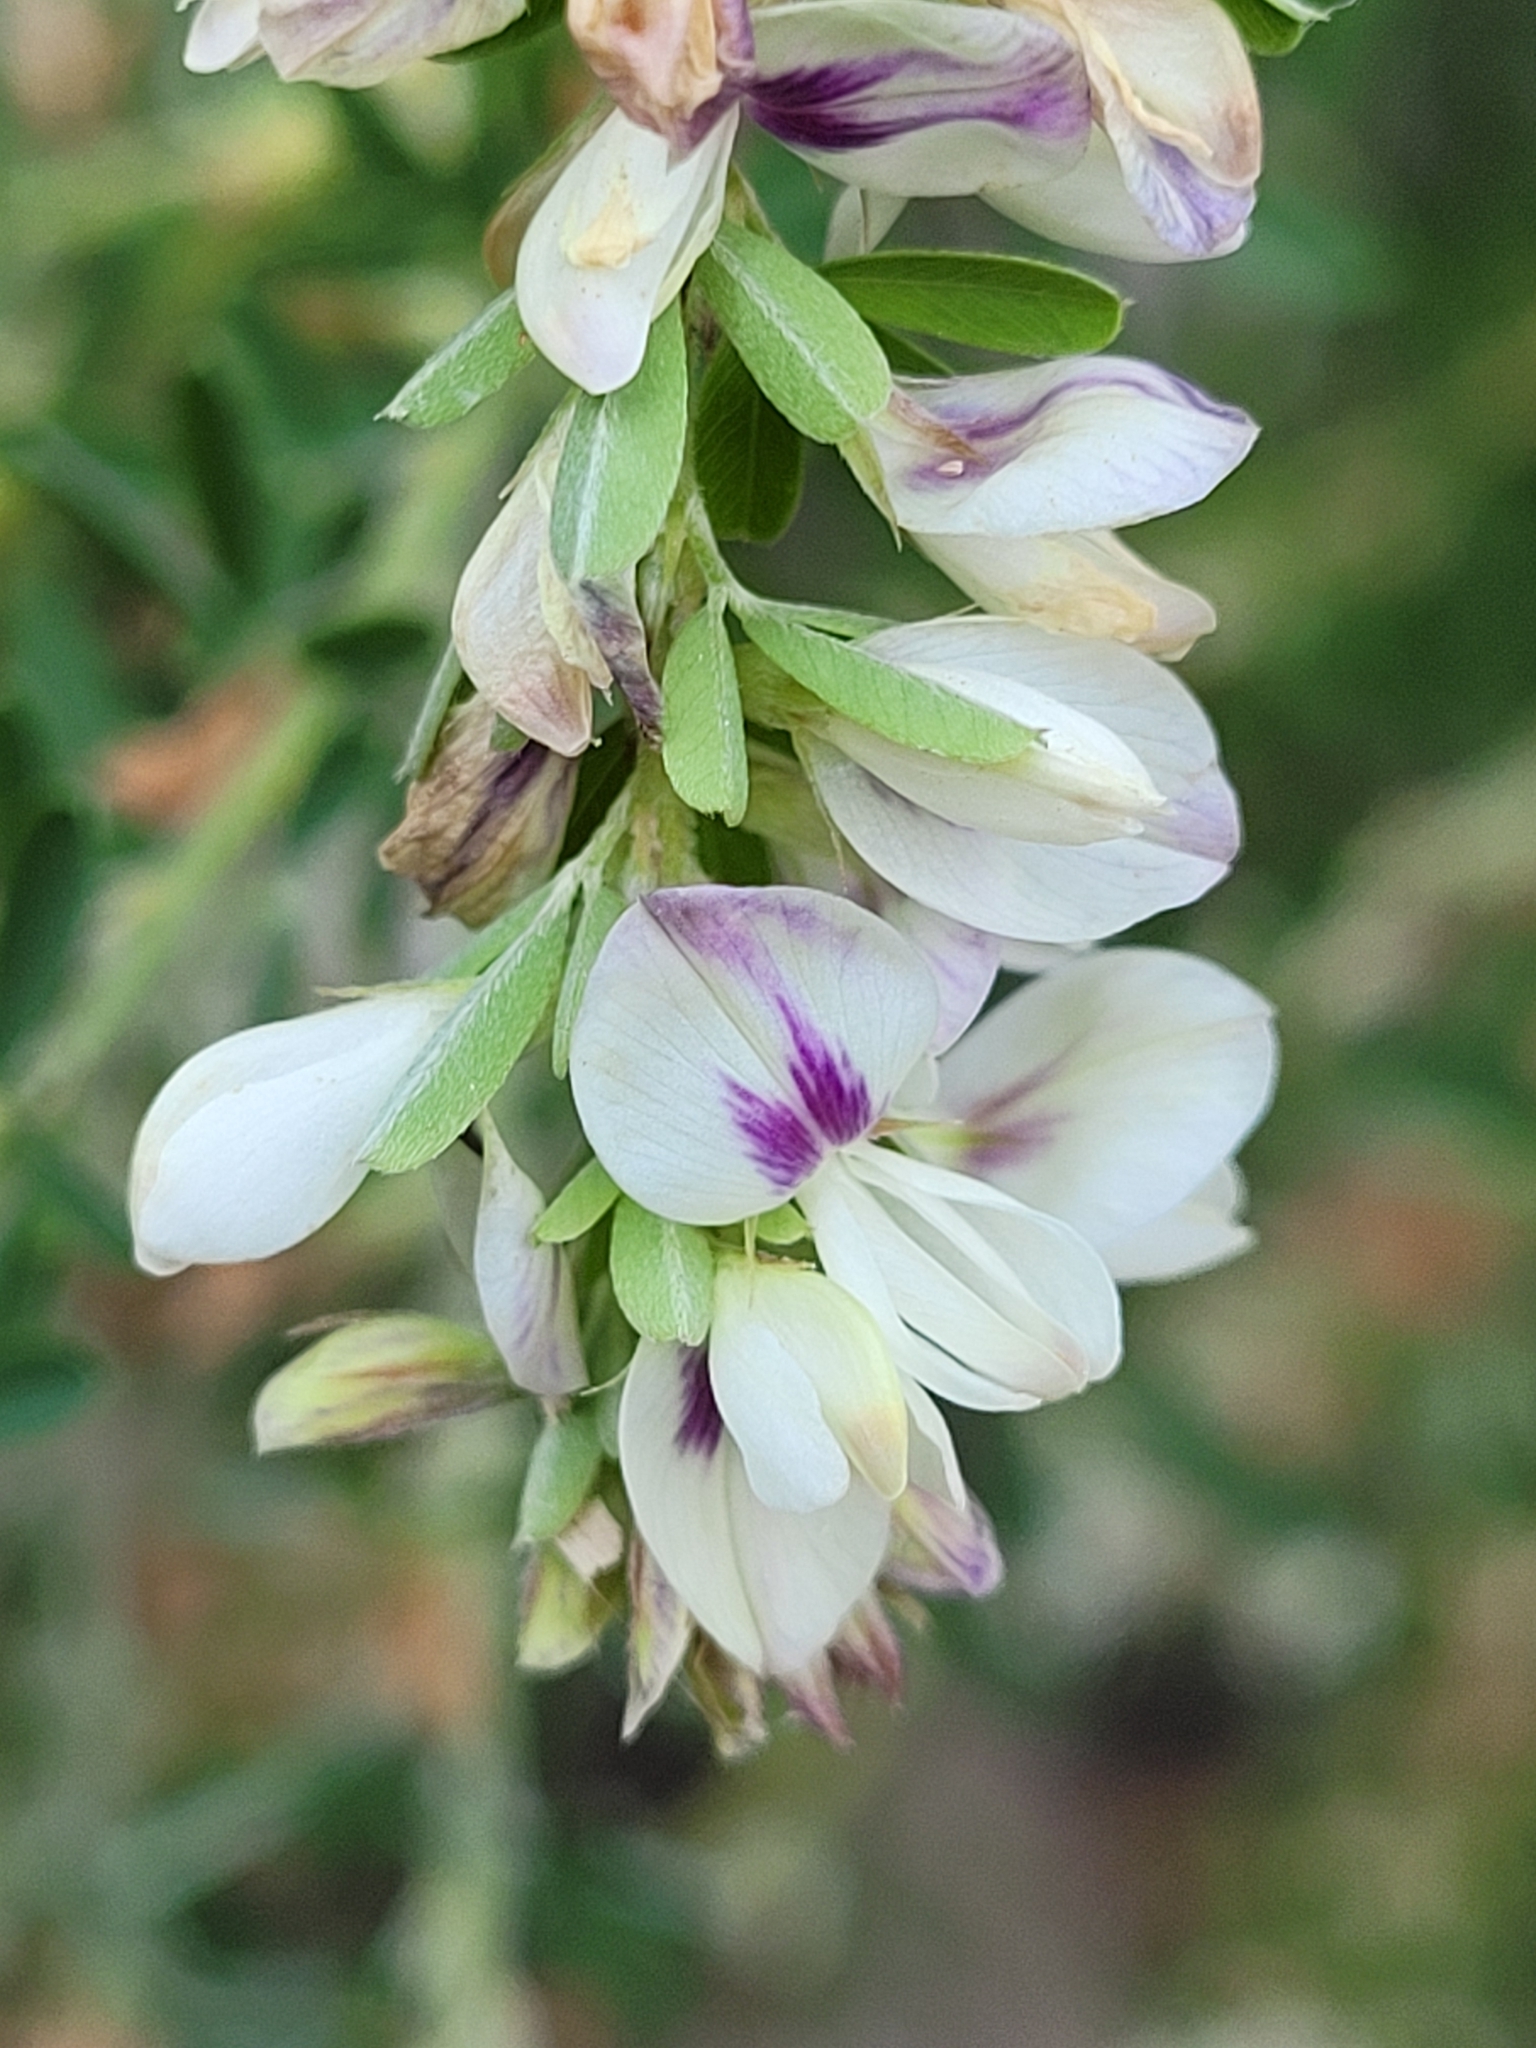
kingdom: Plantae
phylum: Tracheophyta
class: Magnoliopsida
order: Fabales
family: Fabaceae
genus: Lespedeza
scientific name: Lespedeza cuneata
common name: Chinese bush-clover
